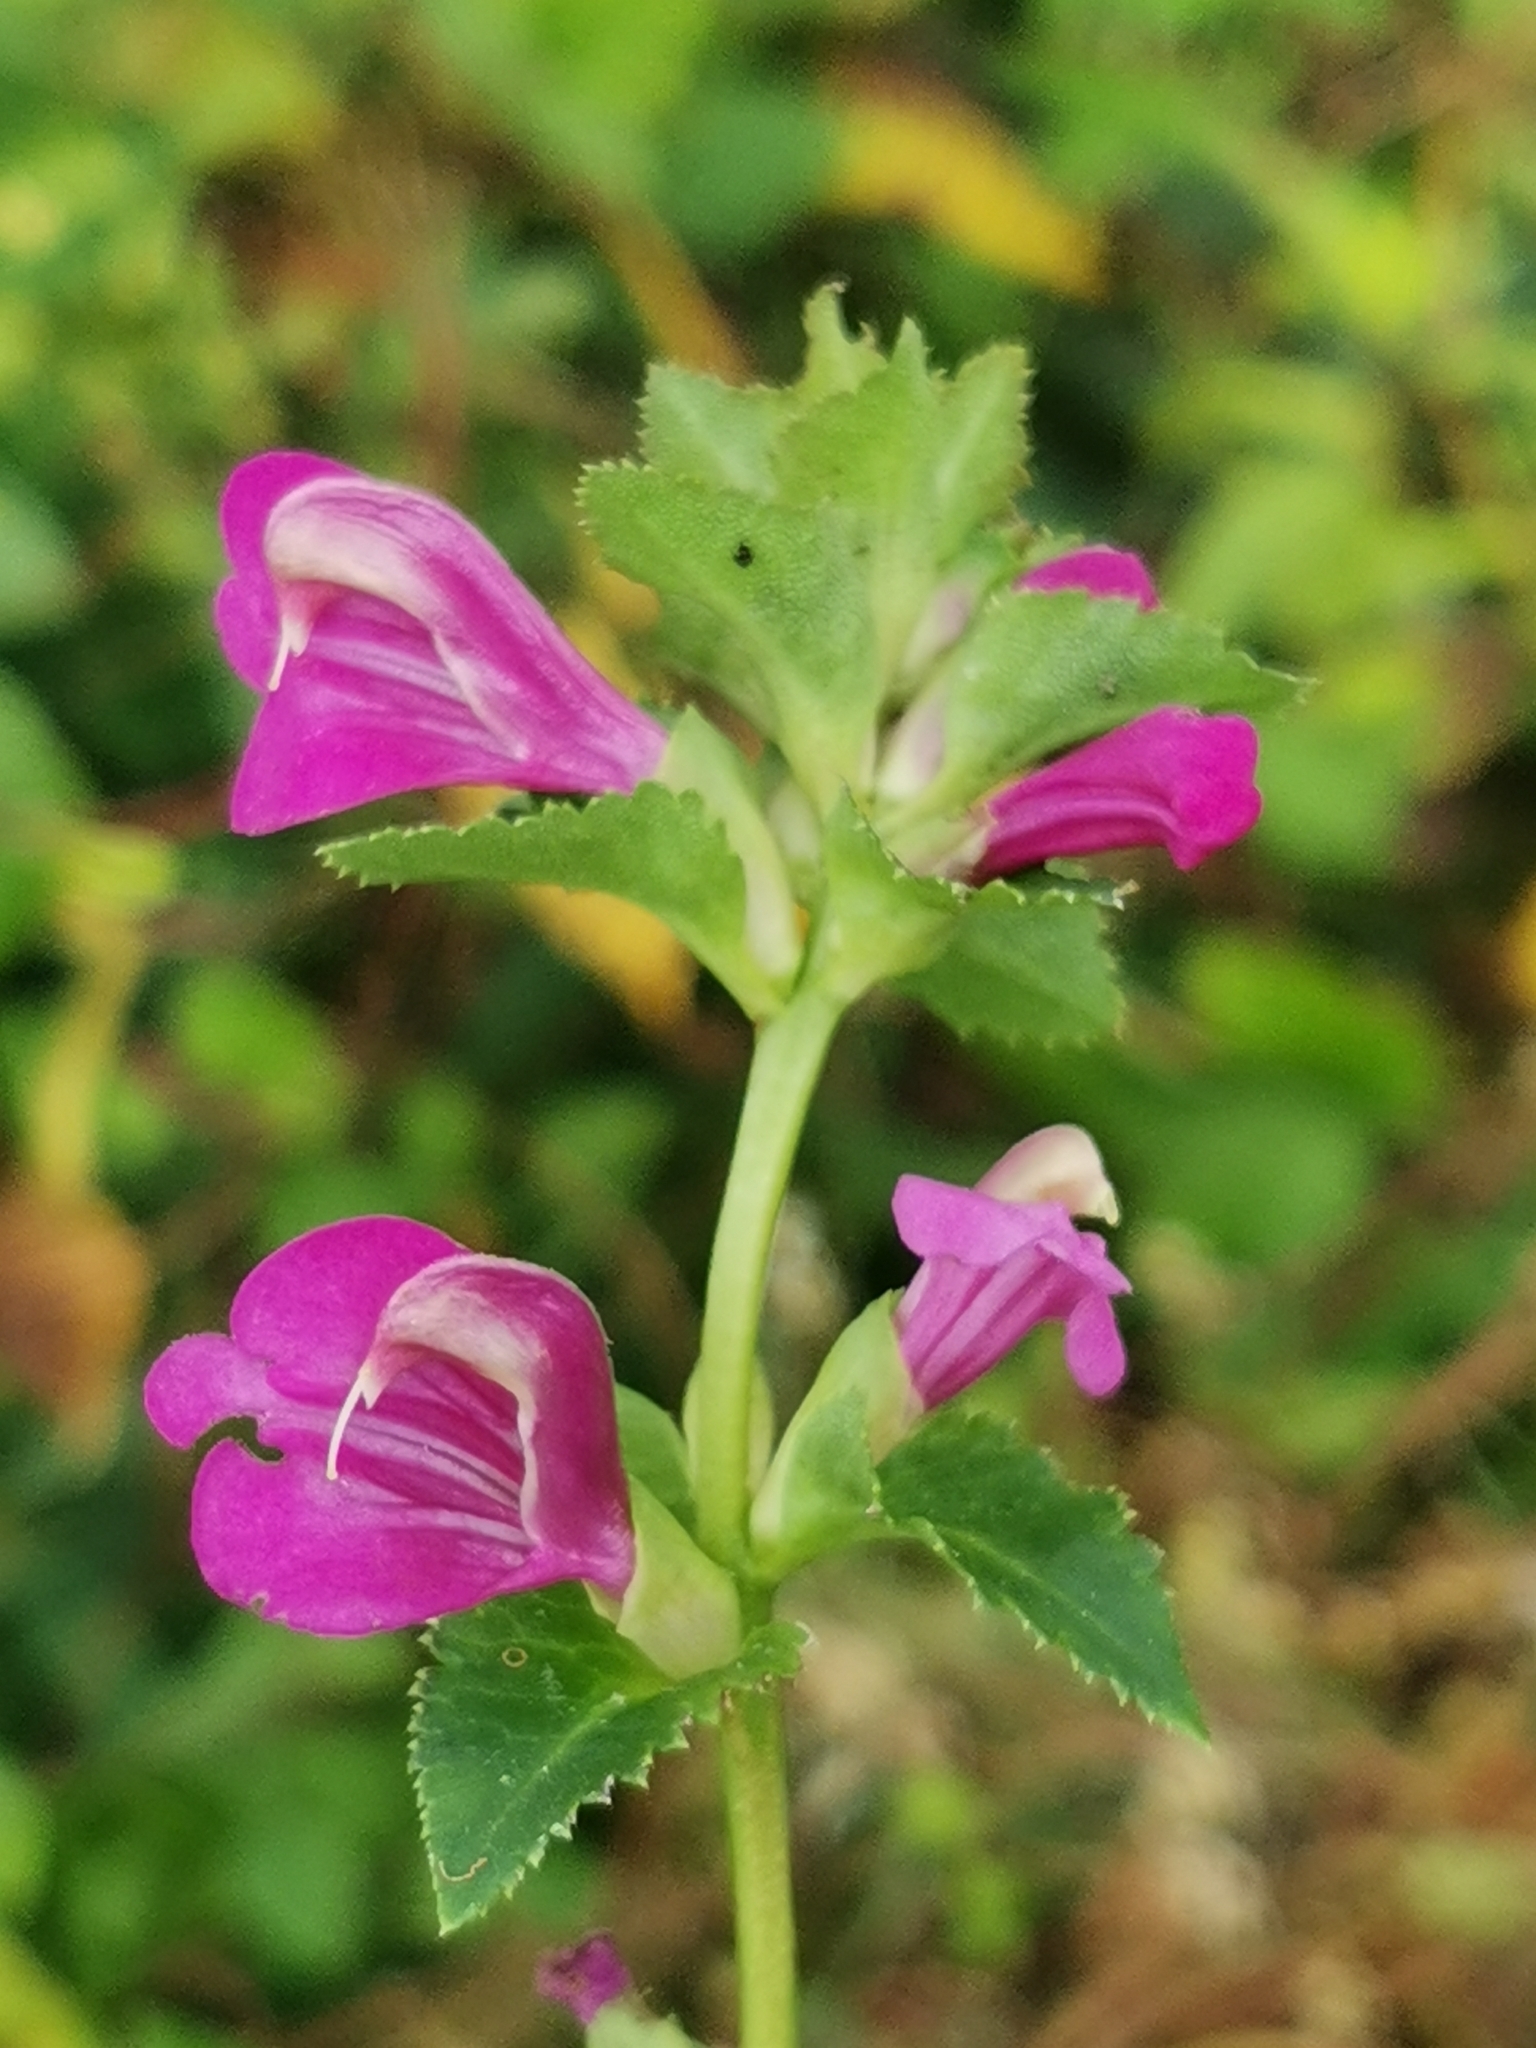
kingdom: Plantae
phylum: Tracheophyta
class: Magnoliopsida
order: Lamiales
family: Orobanchaceae
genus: Pedicularis
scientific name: Pedicularis resupinata
